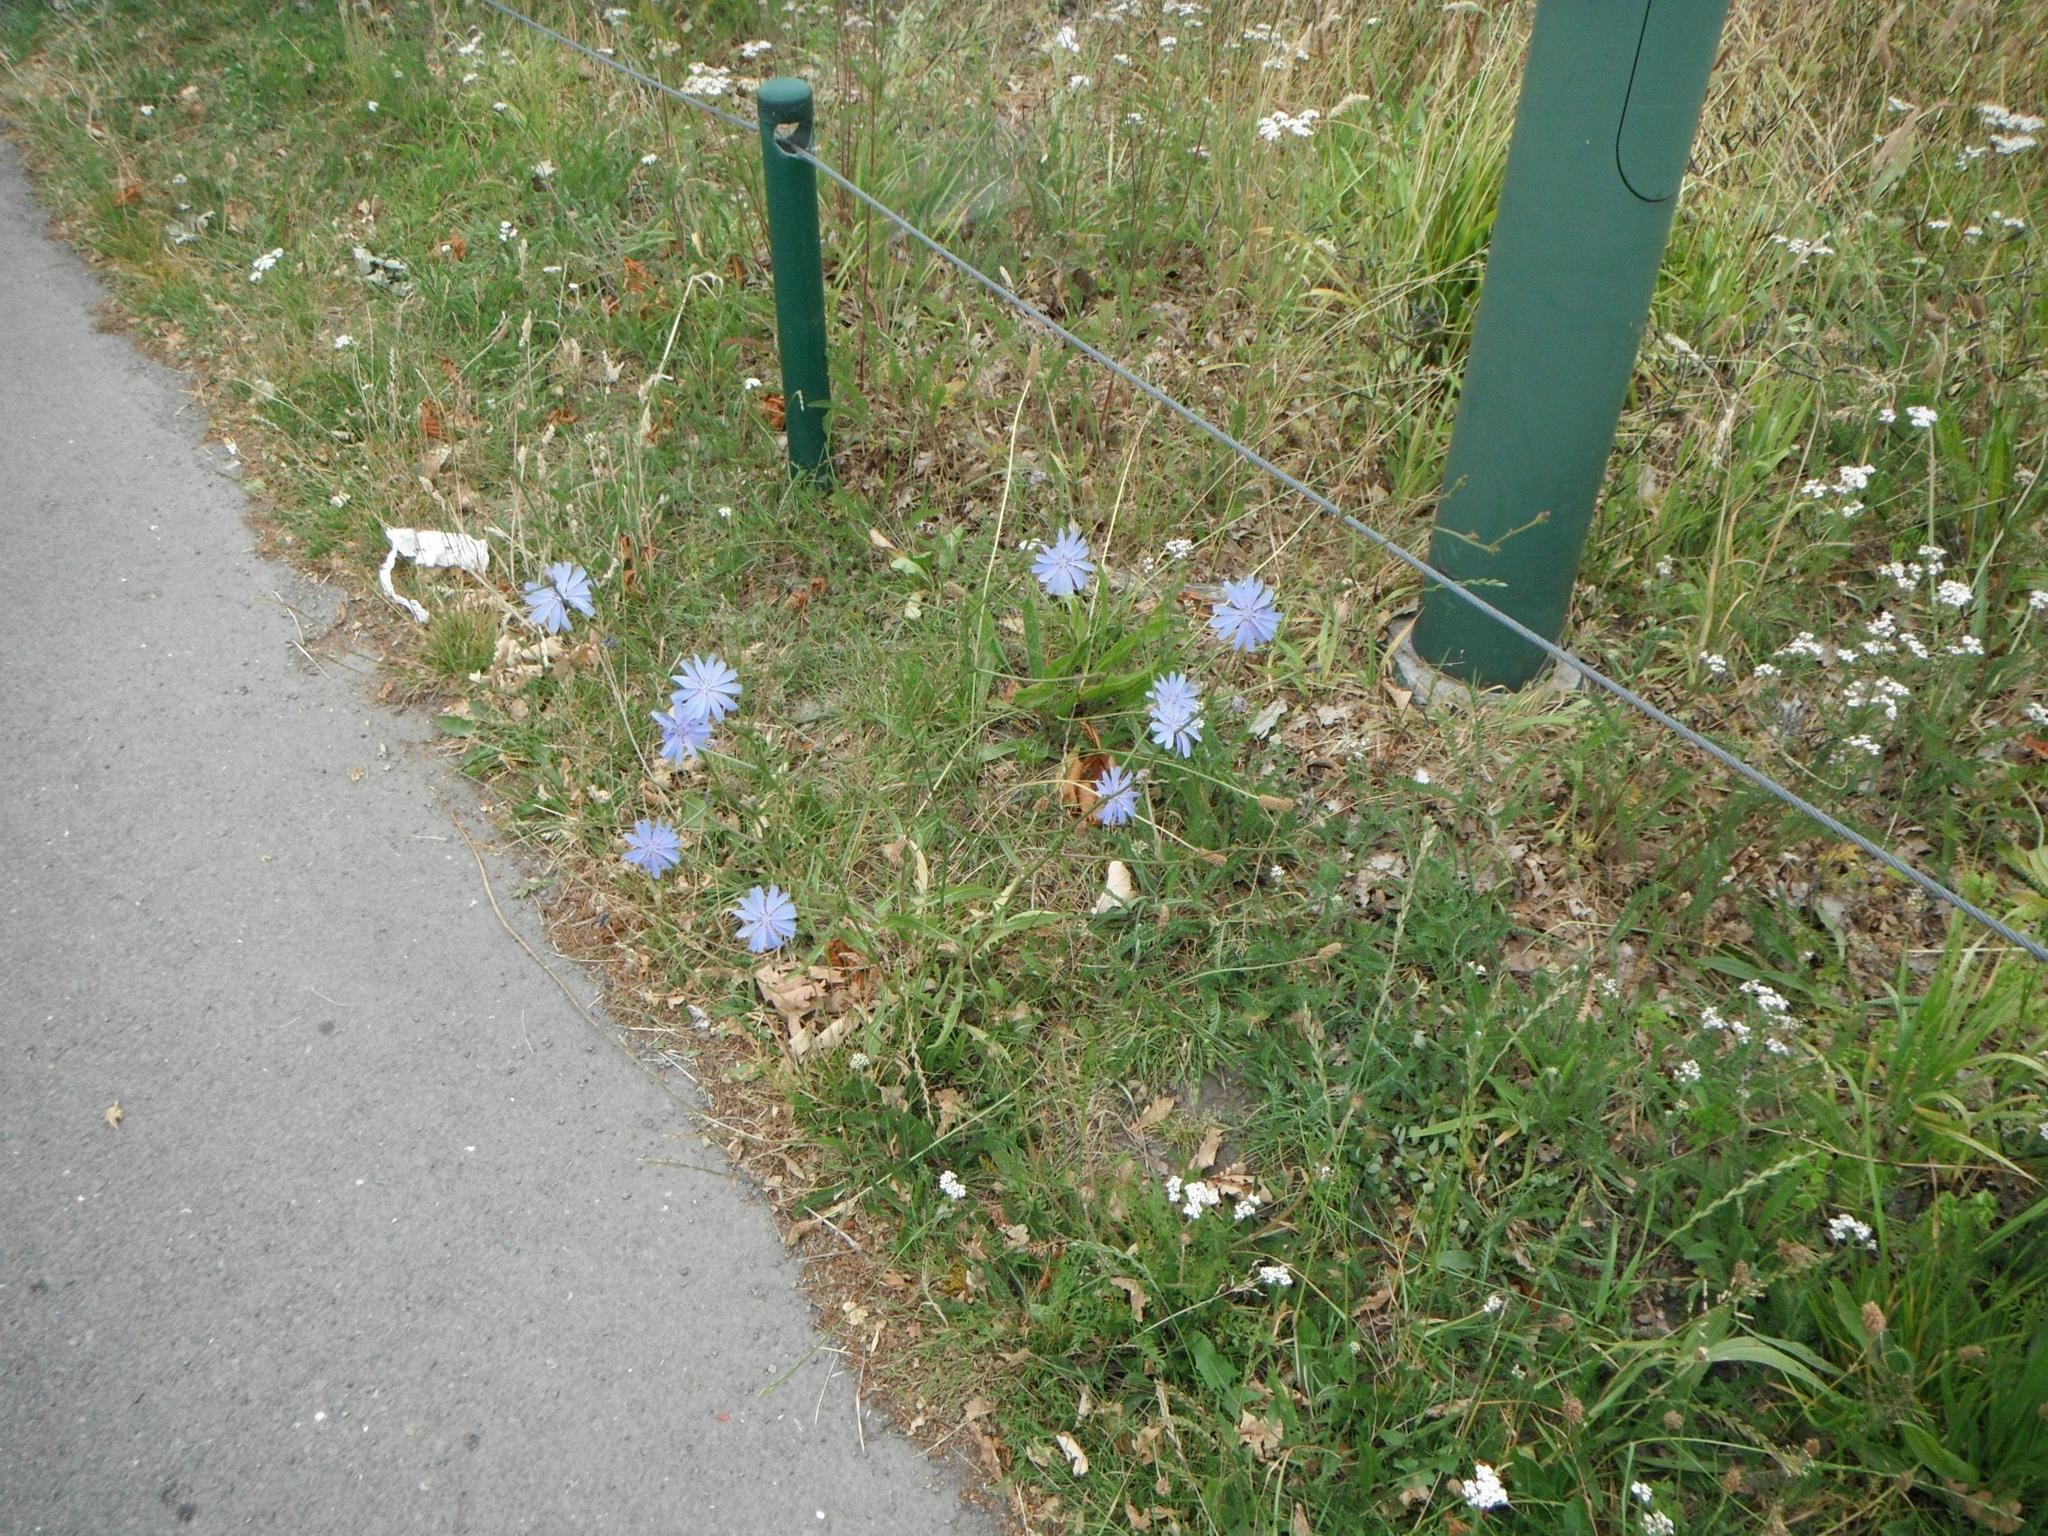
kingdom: Plantae
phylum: Tracheophyta
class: Magnoliopsida
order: Asterales
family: Asteraceae
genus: Cichorium
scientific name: Cichorium intybus
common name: Chicory
